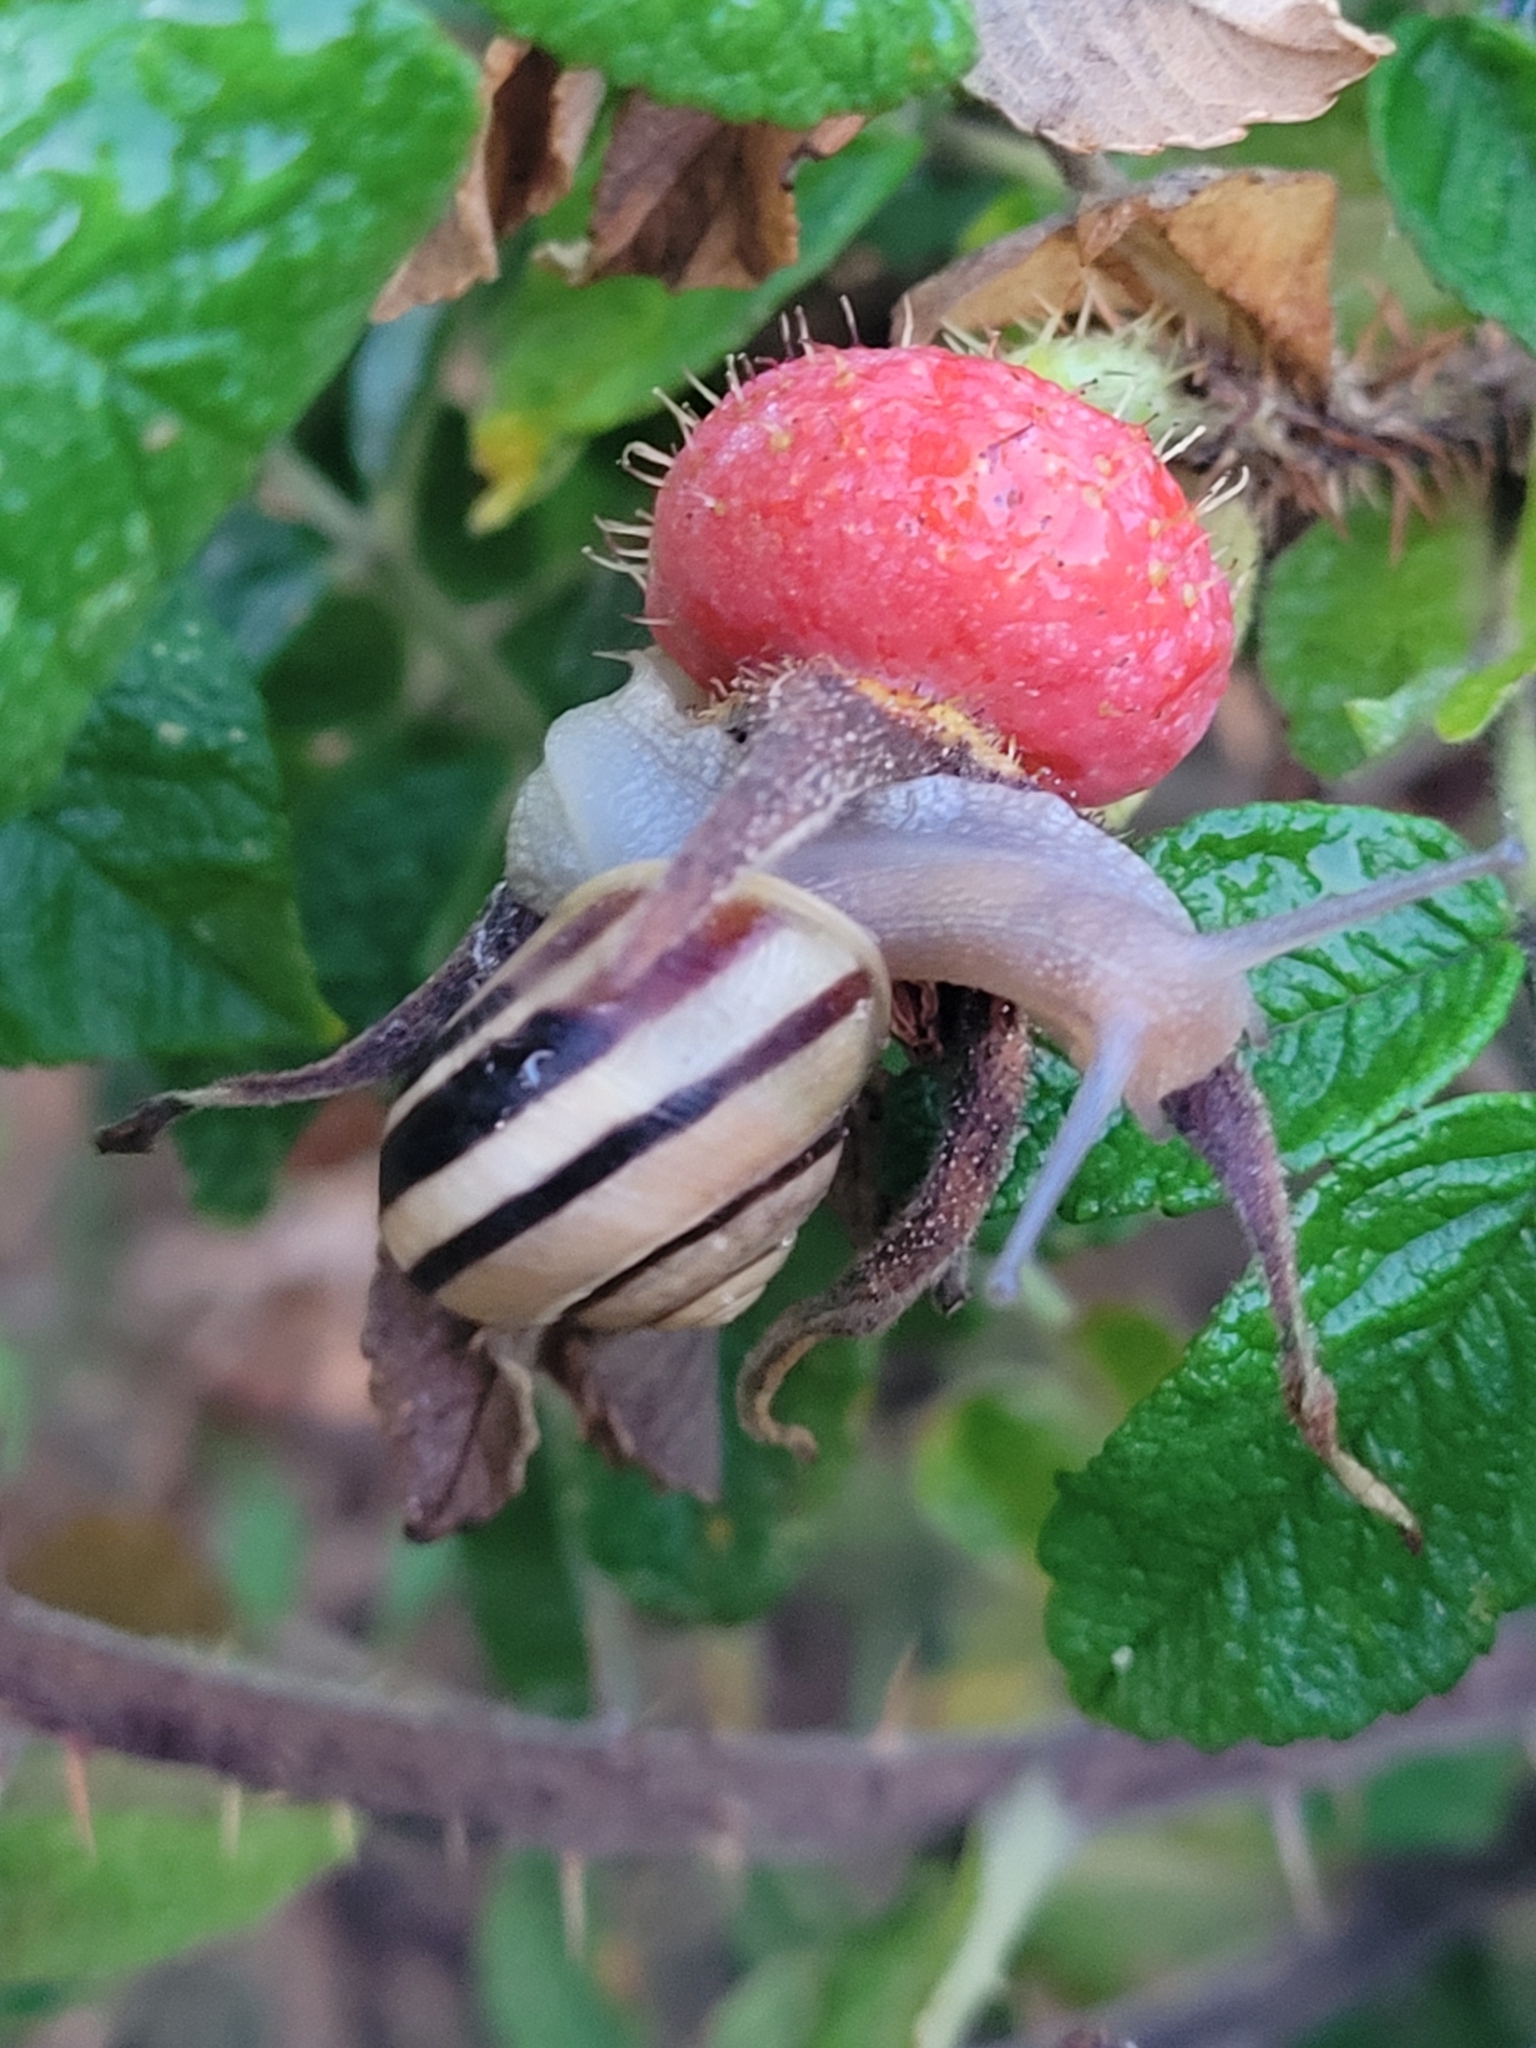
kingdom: Animalia
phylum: Mollusca
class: Gastropoda
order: Stylommatophora
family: Helicidae
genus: Cepaea
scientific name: Cepaea nemoralis
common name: Grovesnail
